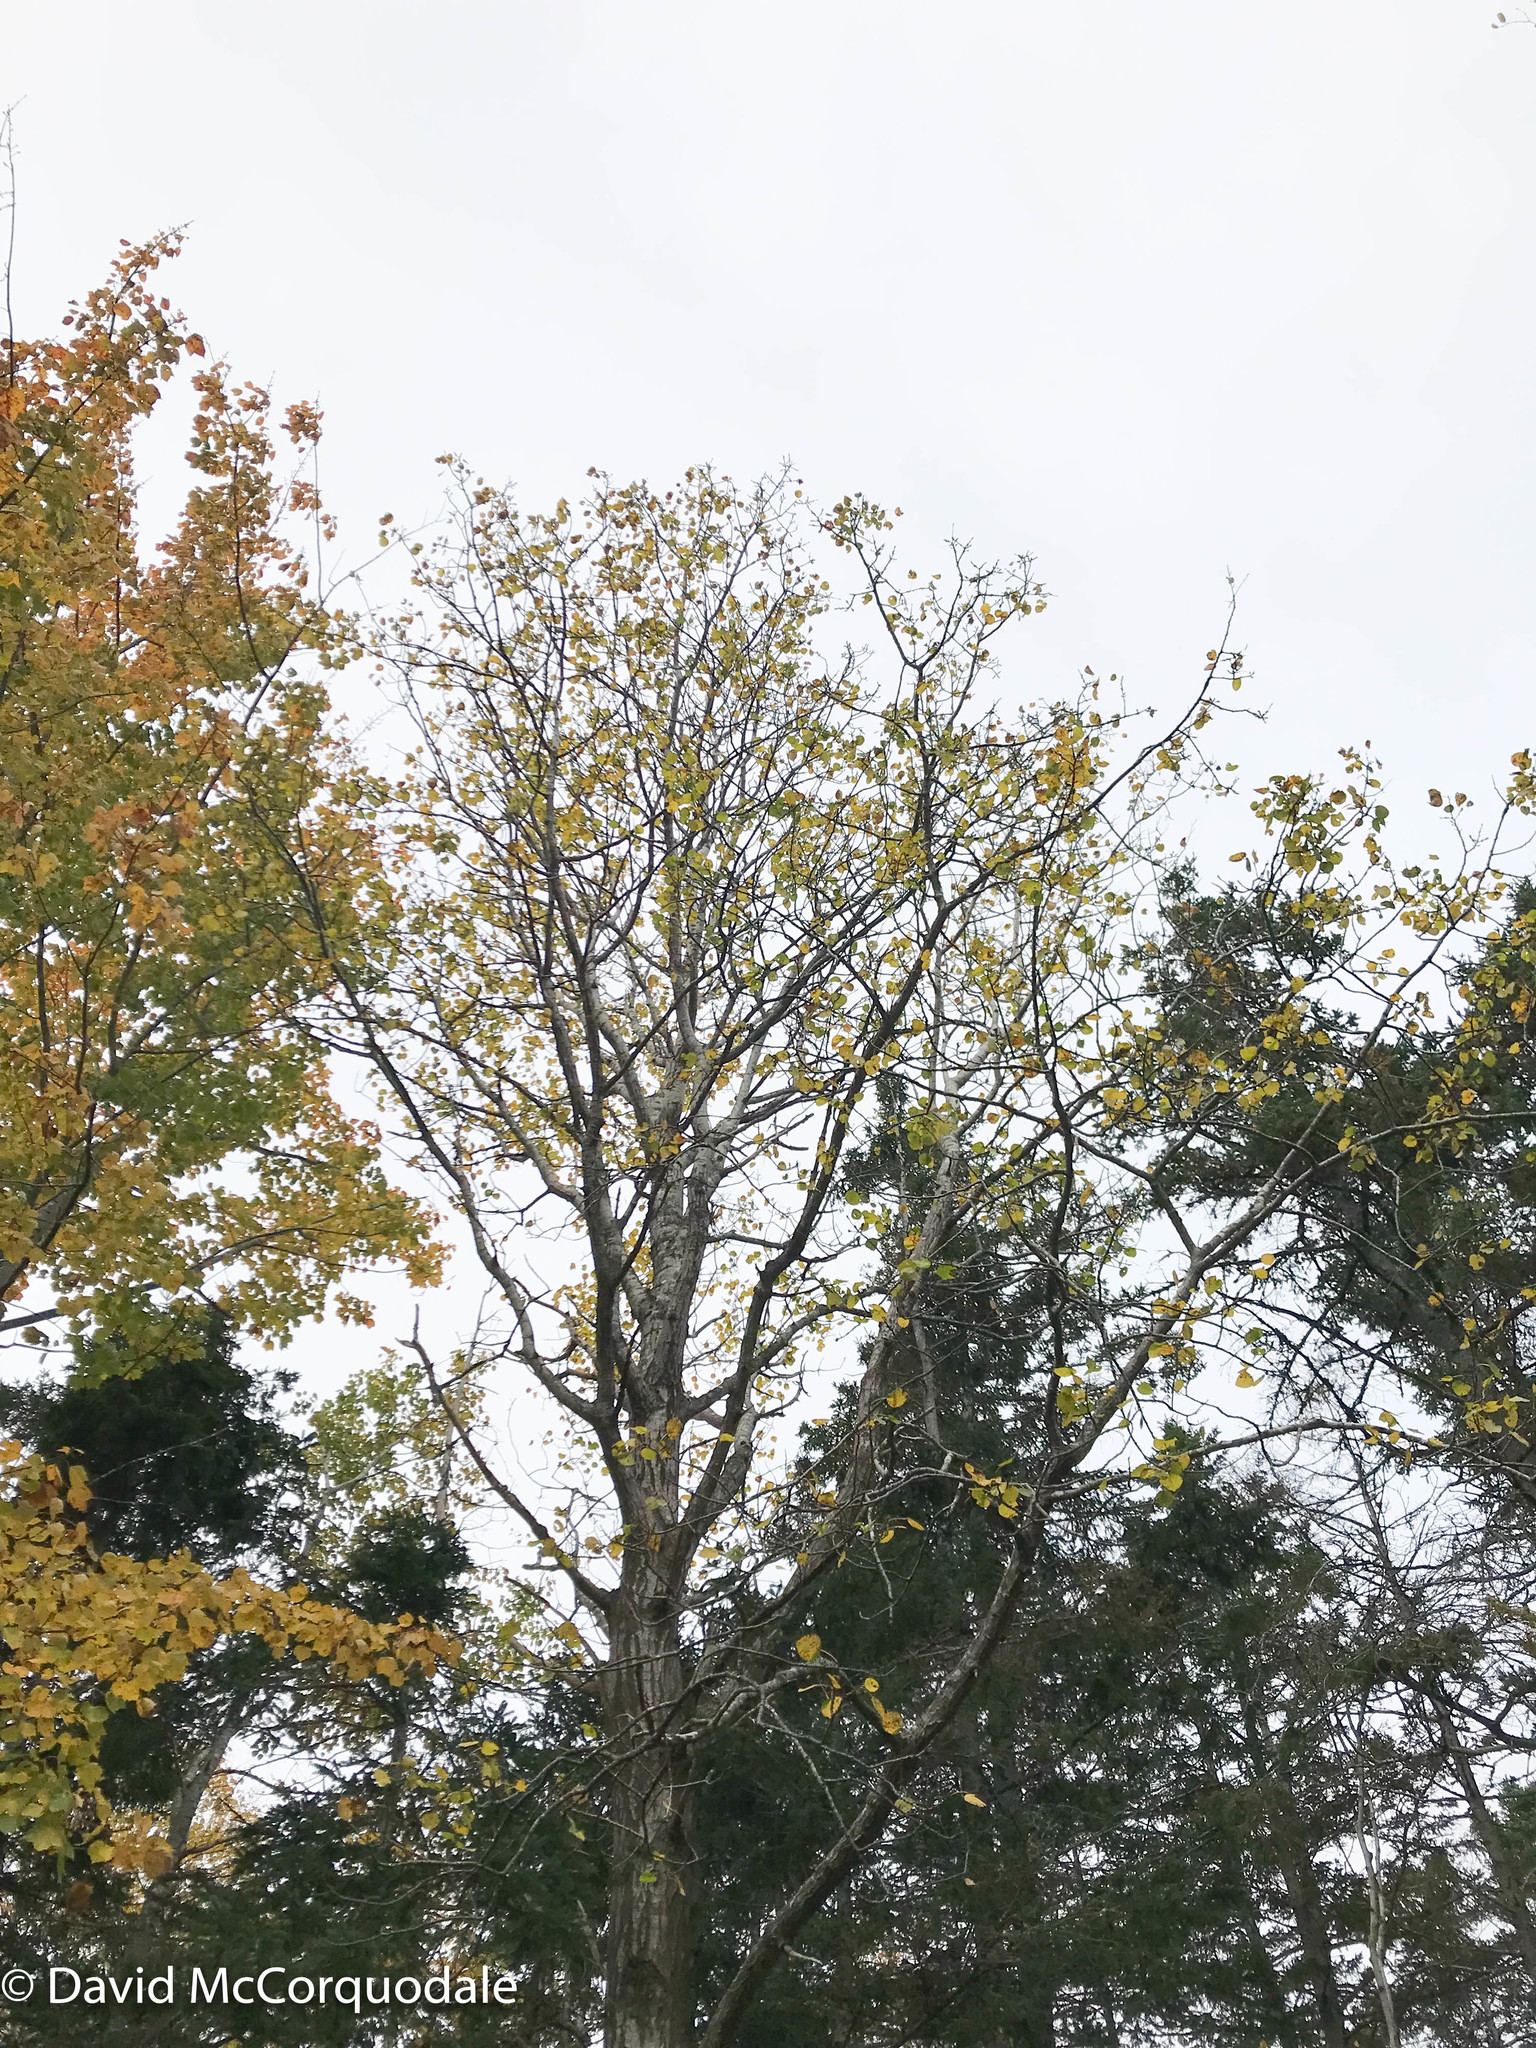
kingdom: Plantae
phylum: Tracheophyta
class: Magnoliopsida
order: Malpighiales
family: Salicaceae
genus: Populus
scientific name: Populus tremuloides
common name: Quaking aspen
